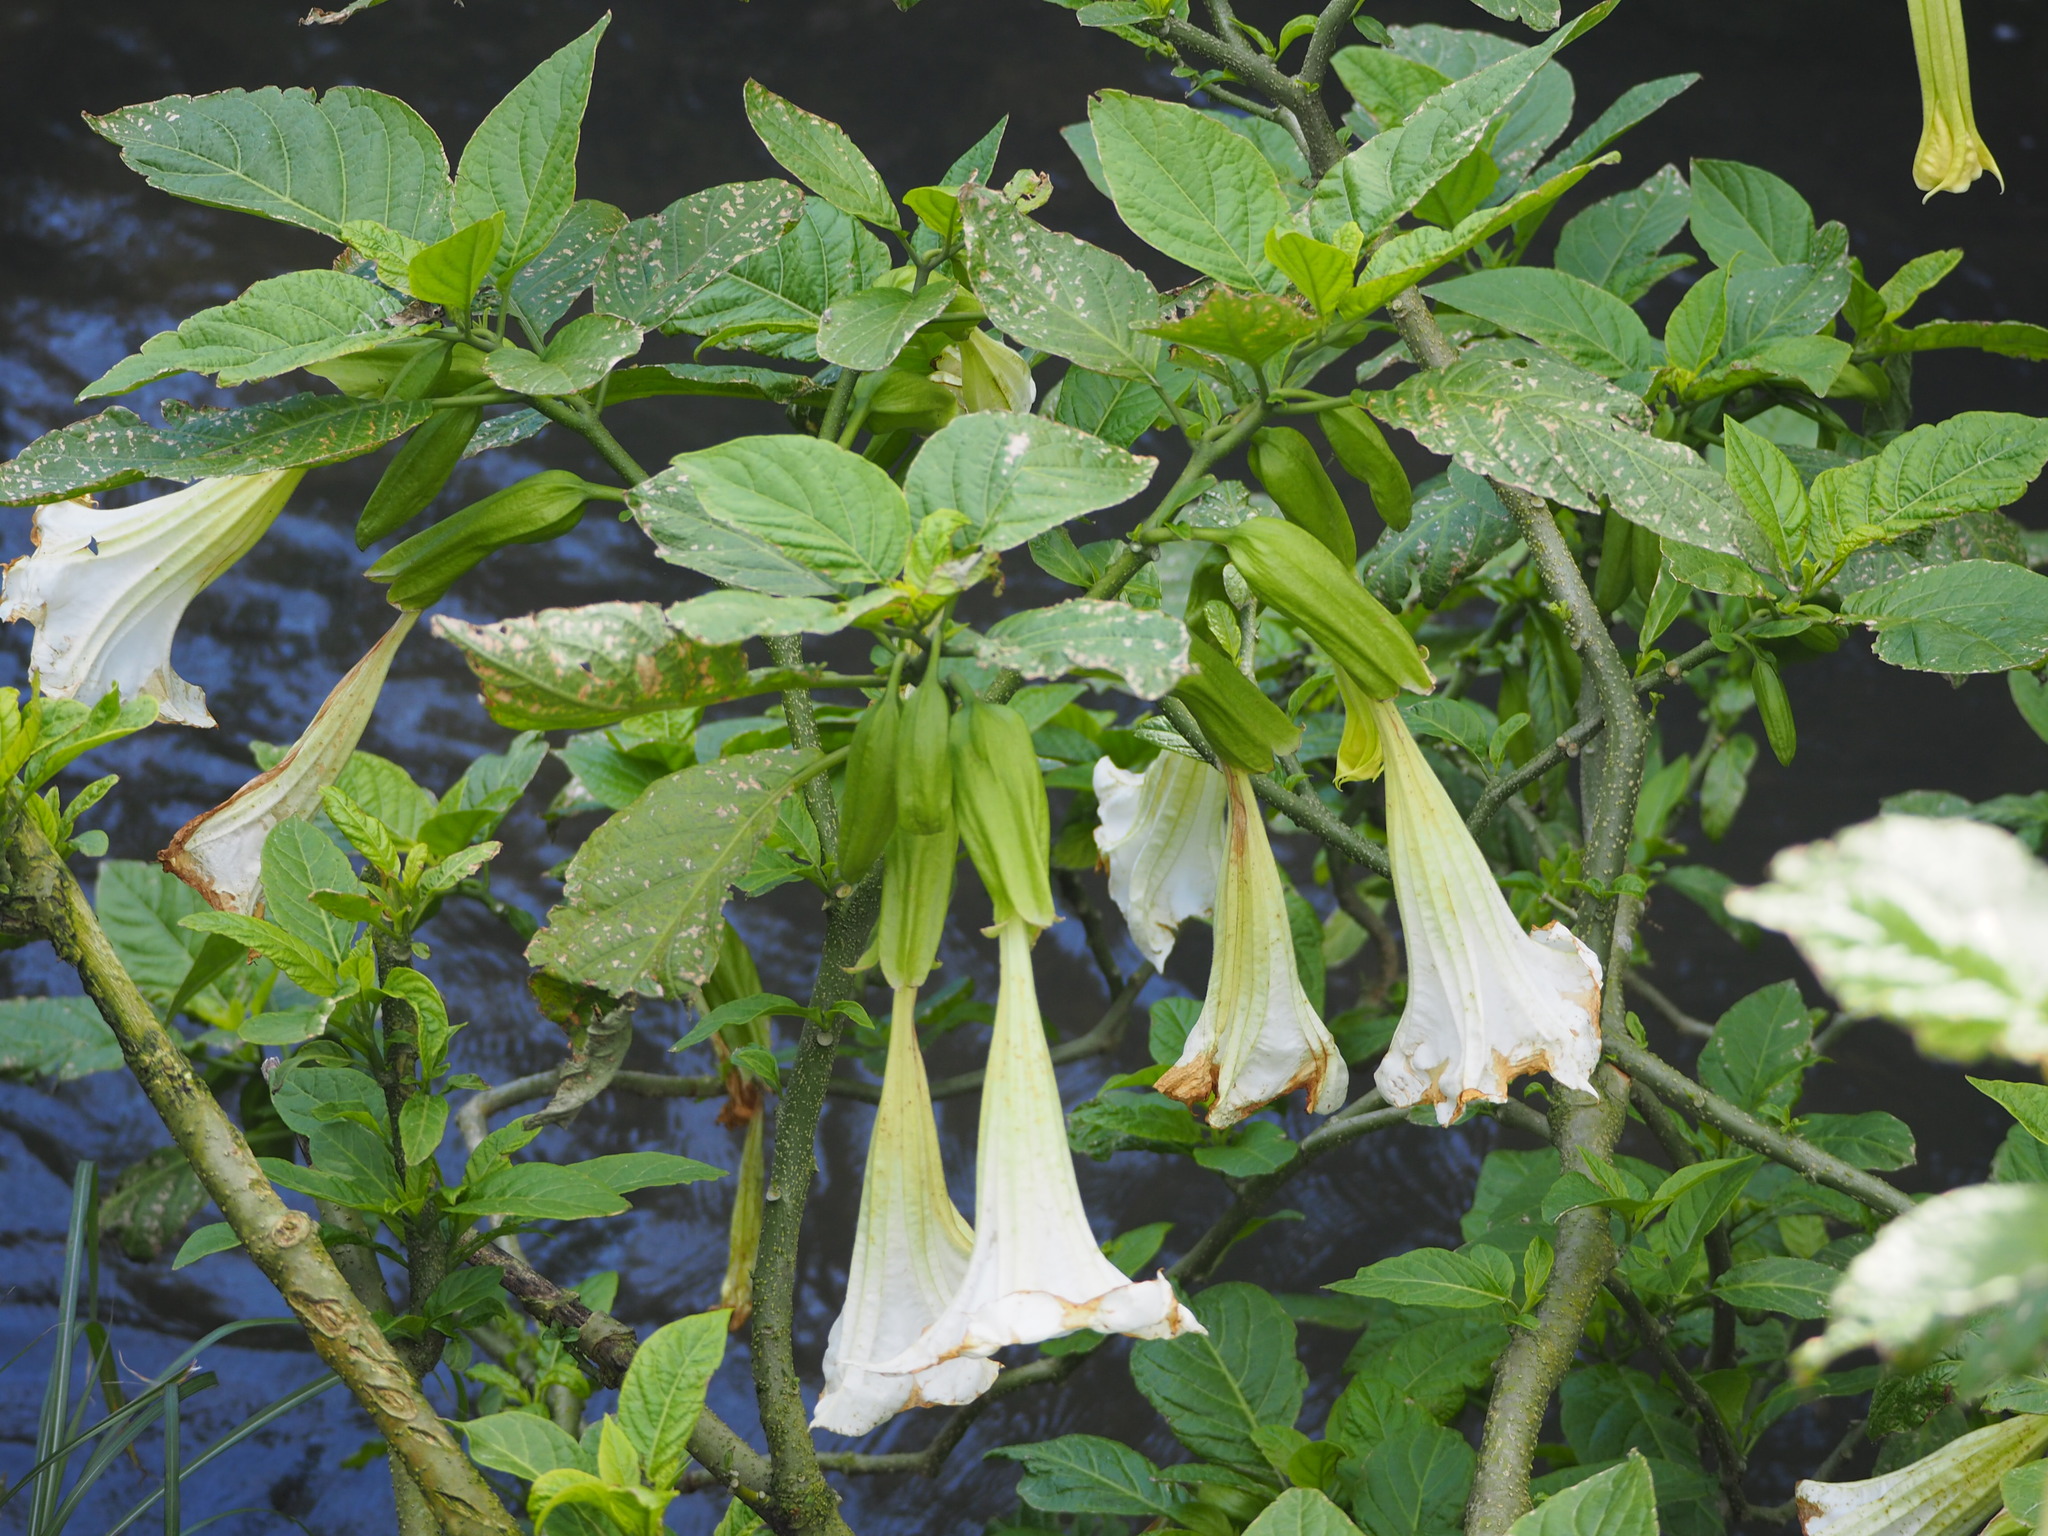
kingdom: Plantae
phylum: Tracheophyta
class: Magnoliopsida
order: Solanales
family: Solanaceae
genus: Brugmansia
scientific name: Brugmansia suaveolens
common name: Angel's tears
